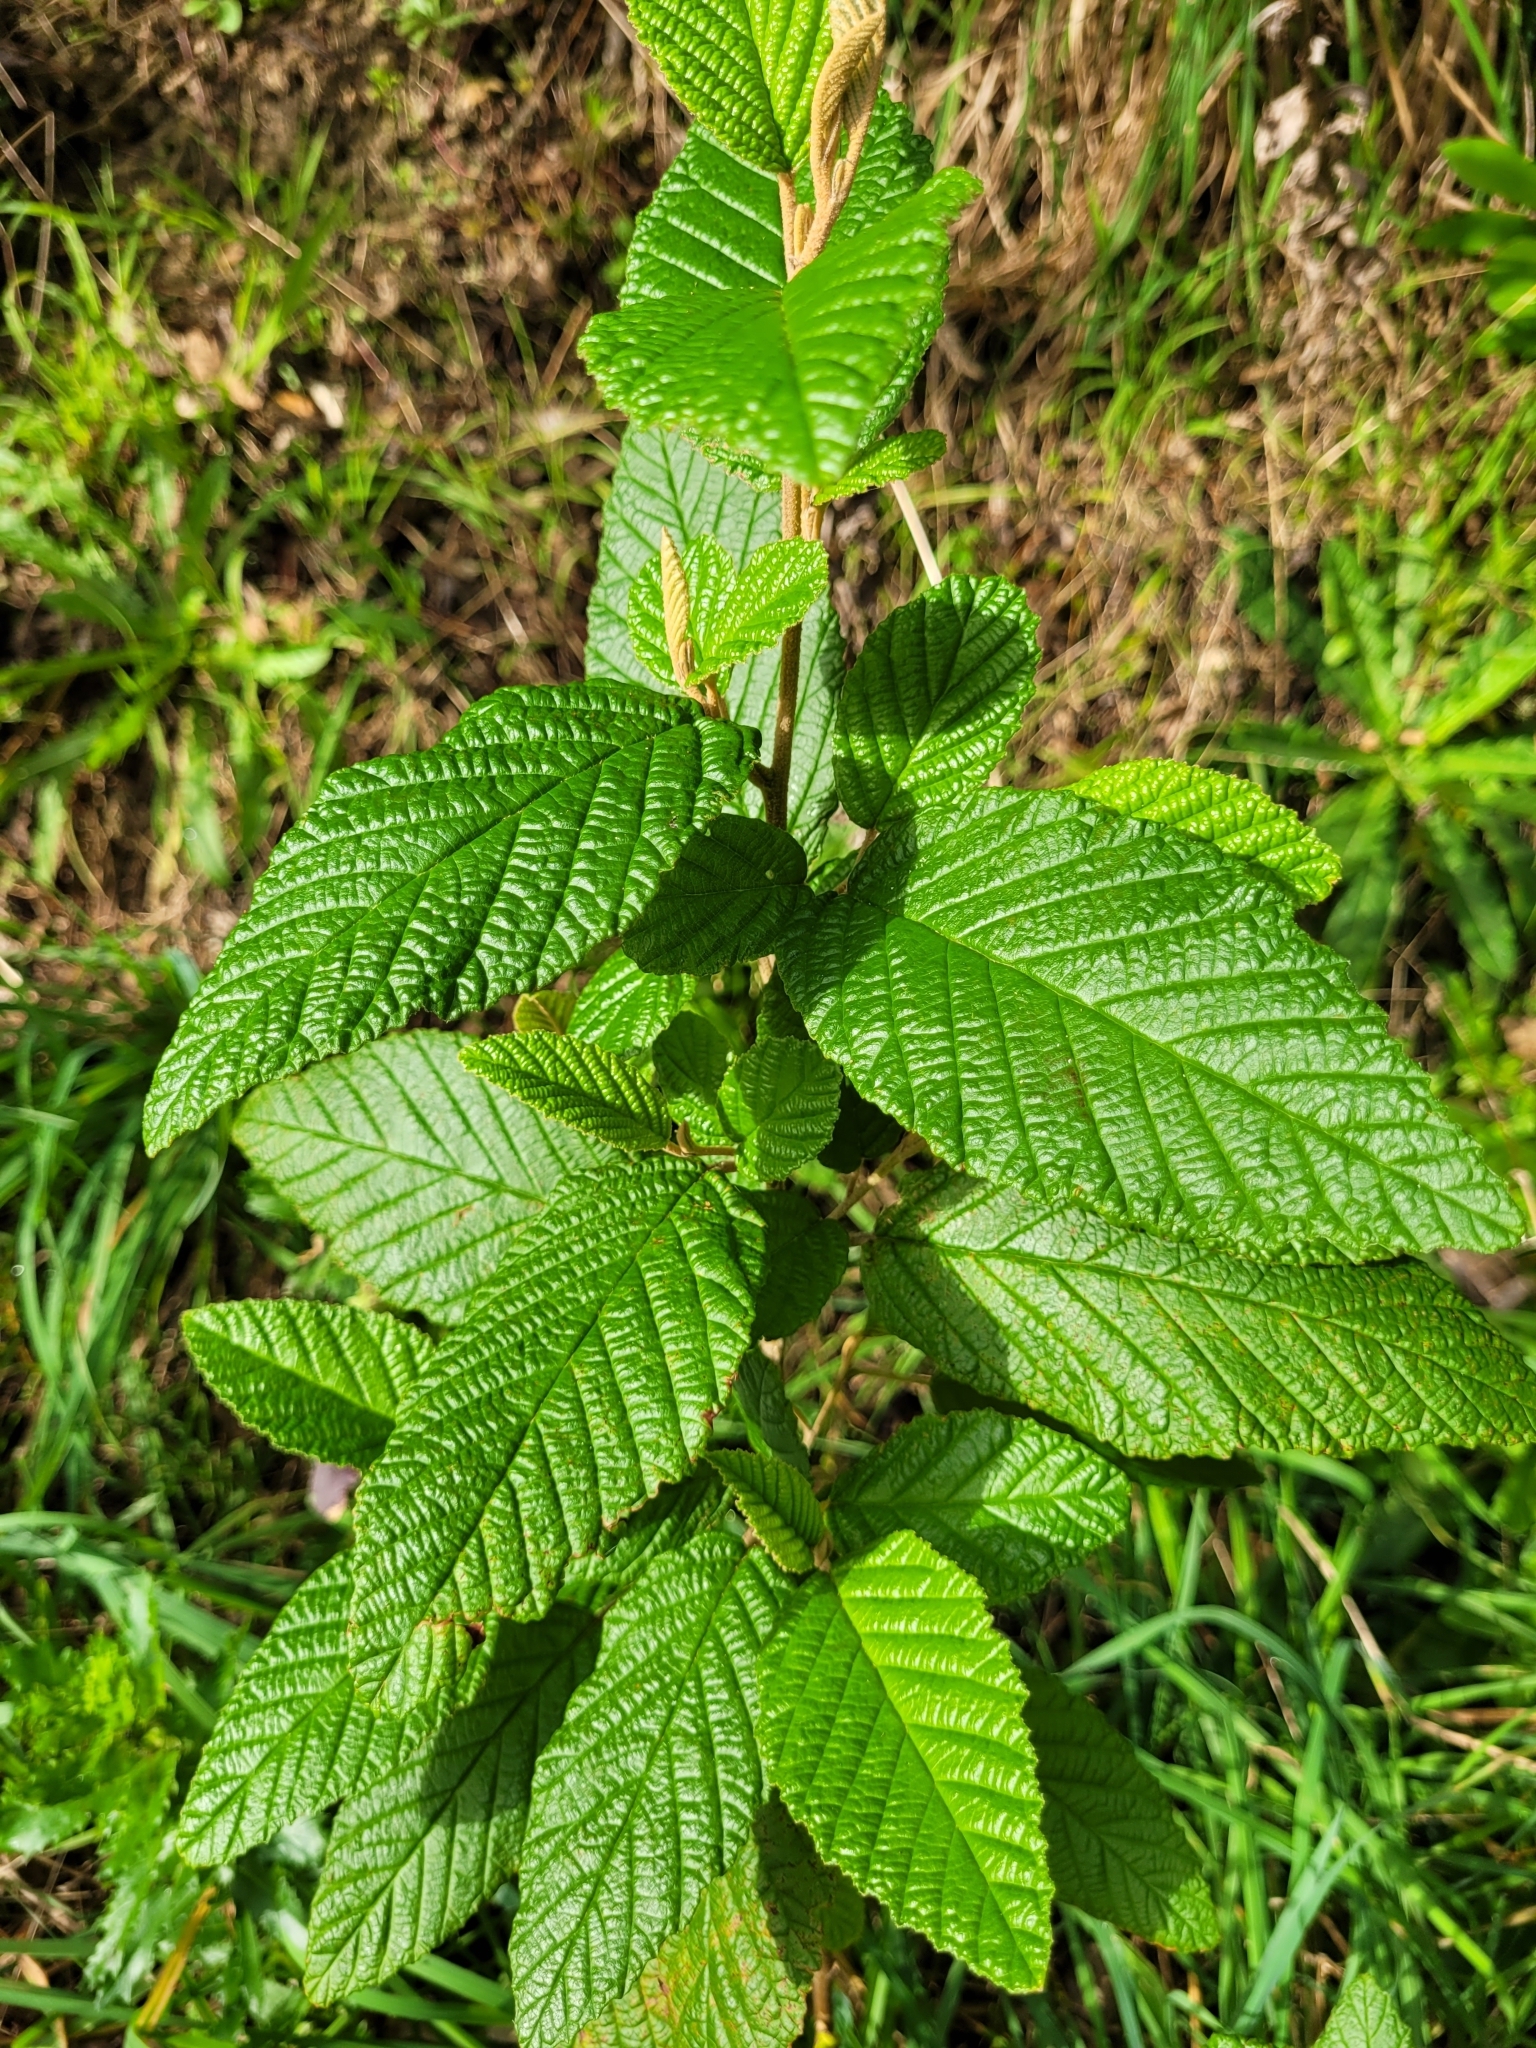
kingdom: Plantae
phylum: Tracheophyta
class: Magnoliopsida
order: Rosales
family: Rhamnaceae
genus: Pomaderris
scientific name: Pomaderris aspera
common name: Hazel pomaderris
